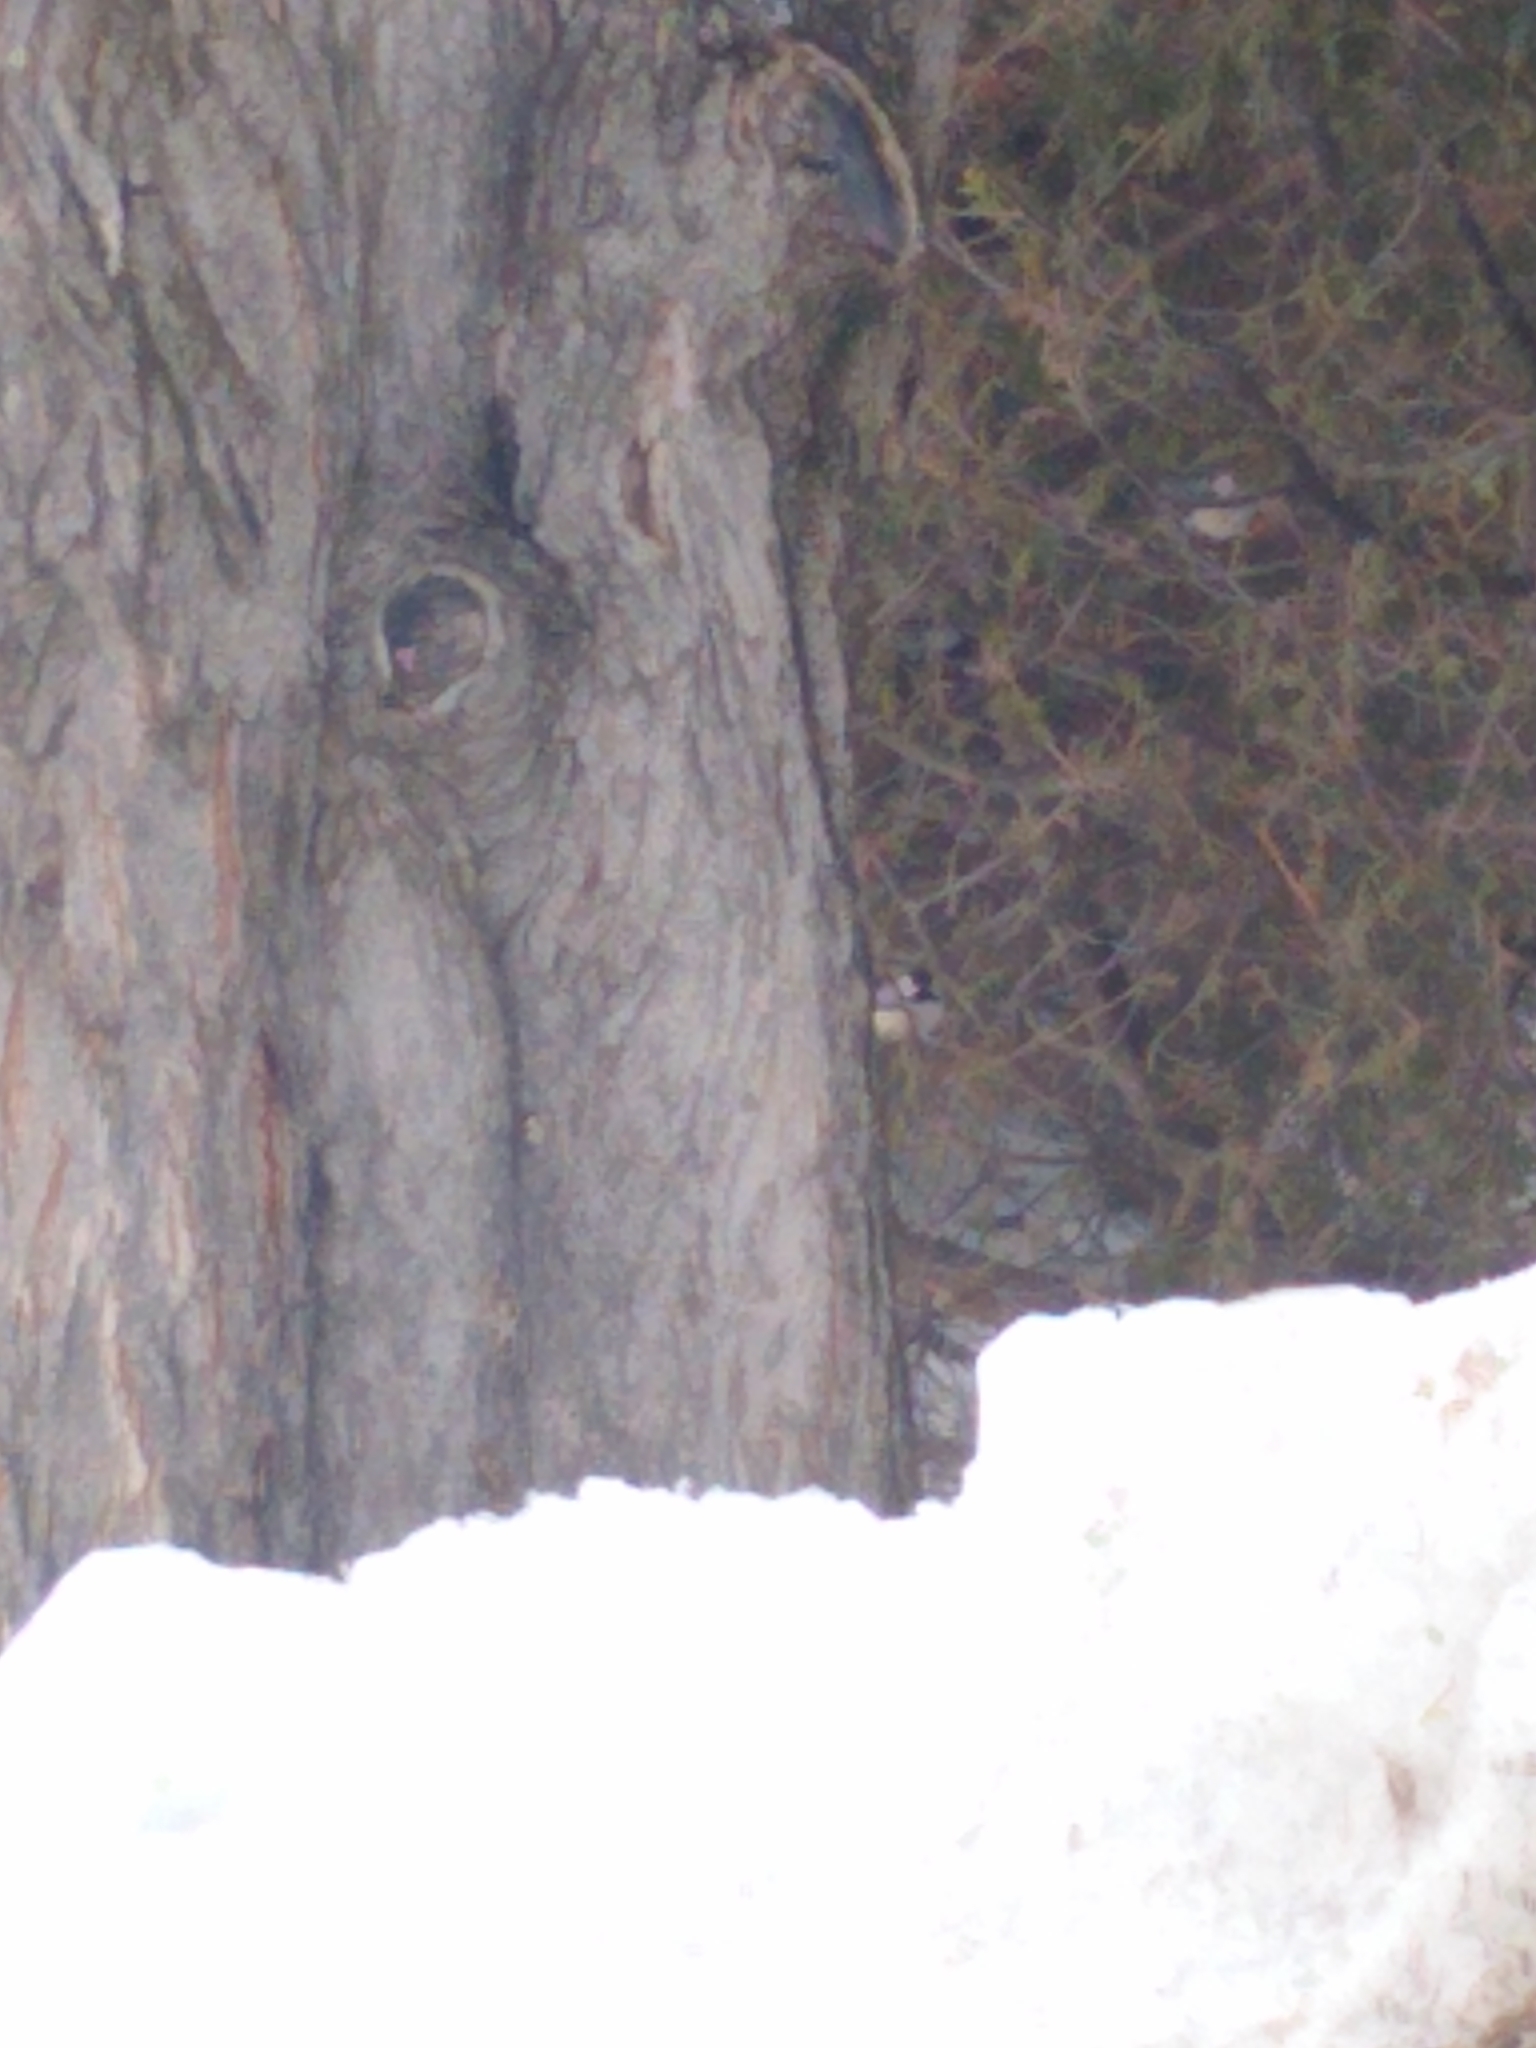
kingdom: Animalia
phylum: Chordata
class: Aves
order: Passeriformes
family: Paridae
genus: Poecile
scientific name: Poecile atricapillus
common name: Black-capped chickadee
